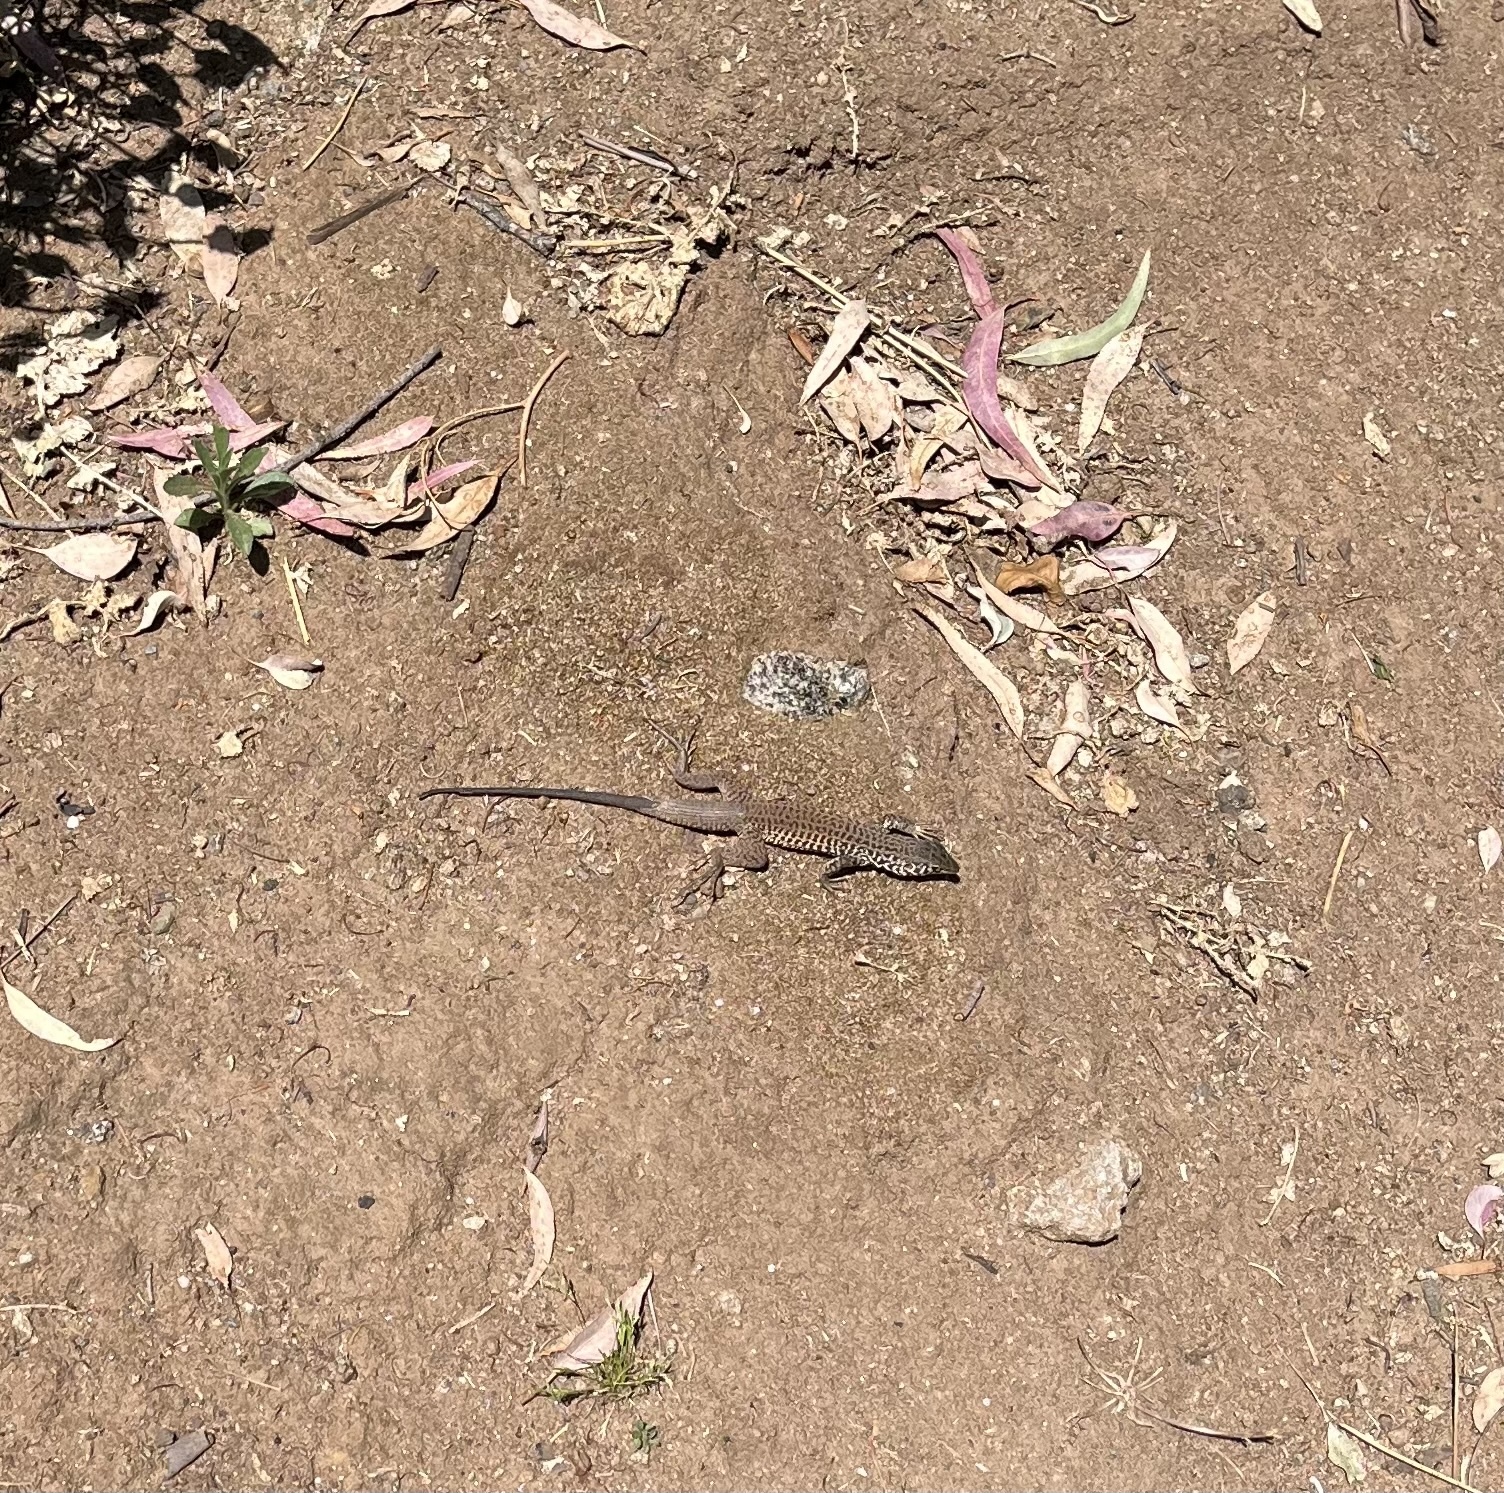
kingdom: Animalia
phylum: Chordata
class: Squamata
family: Teiidae
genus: Aspidoscelis
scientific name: Aspidoscelis tigris
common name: Tiger whiptail
